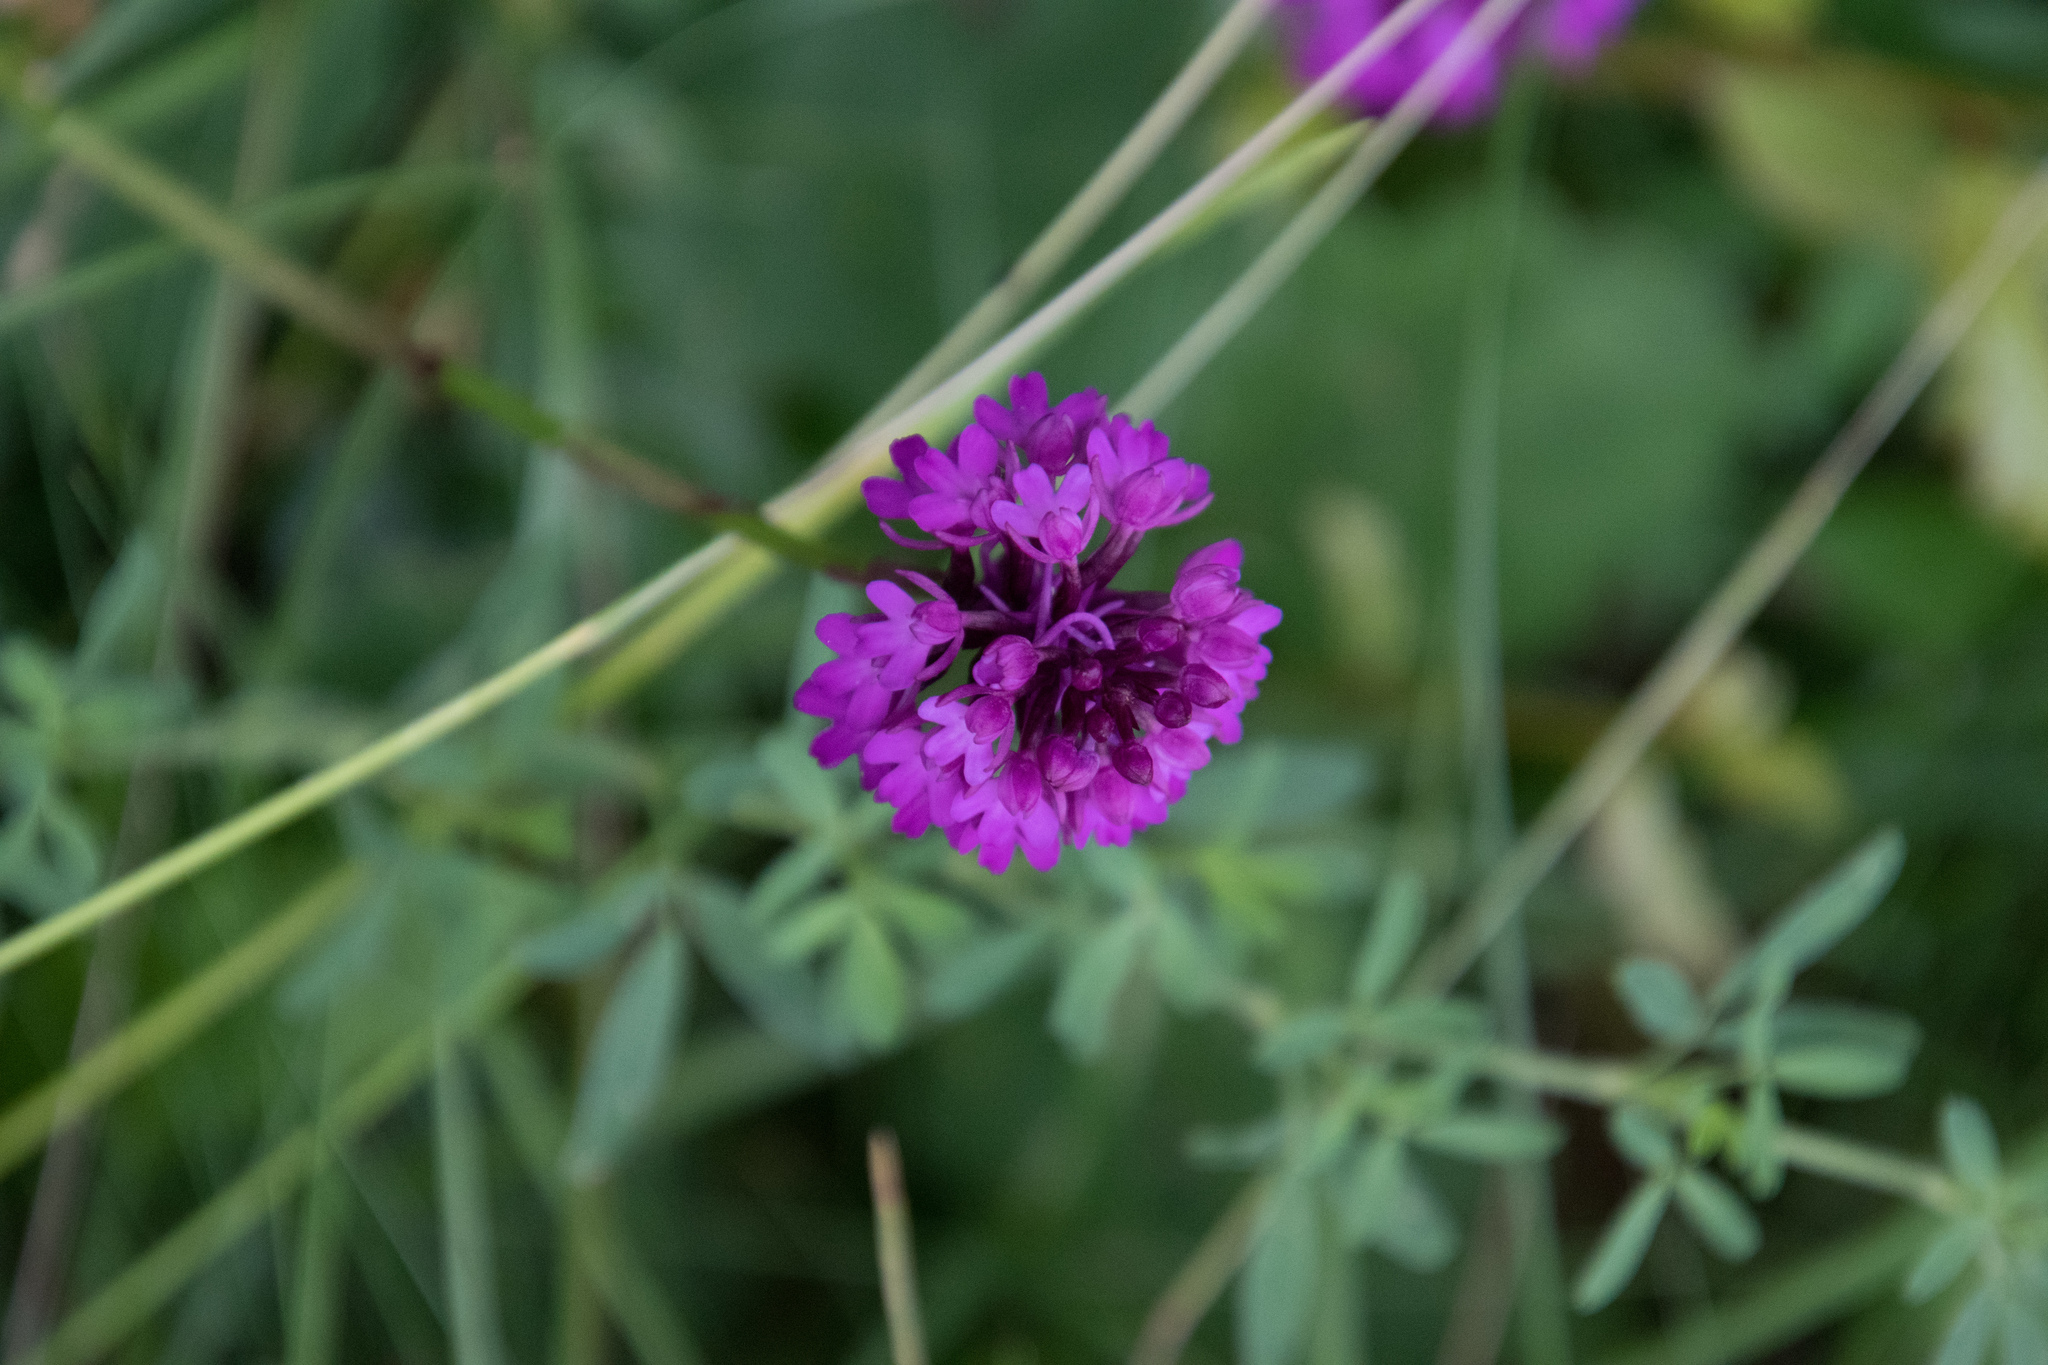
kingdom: Plantae
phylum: Tracheophyta
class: Liliopsida
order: Asparagales
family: Orchidaceae
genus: Anacamptis
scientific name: Anacamptis pyramidalis
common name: Pyramidal orchid
